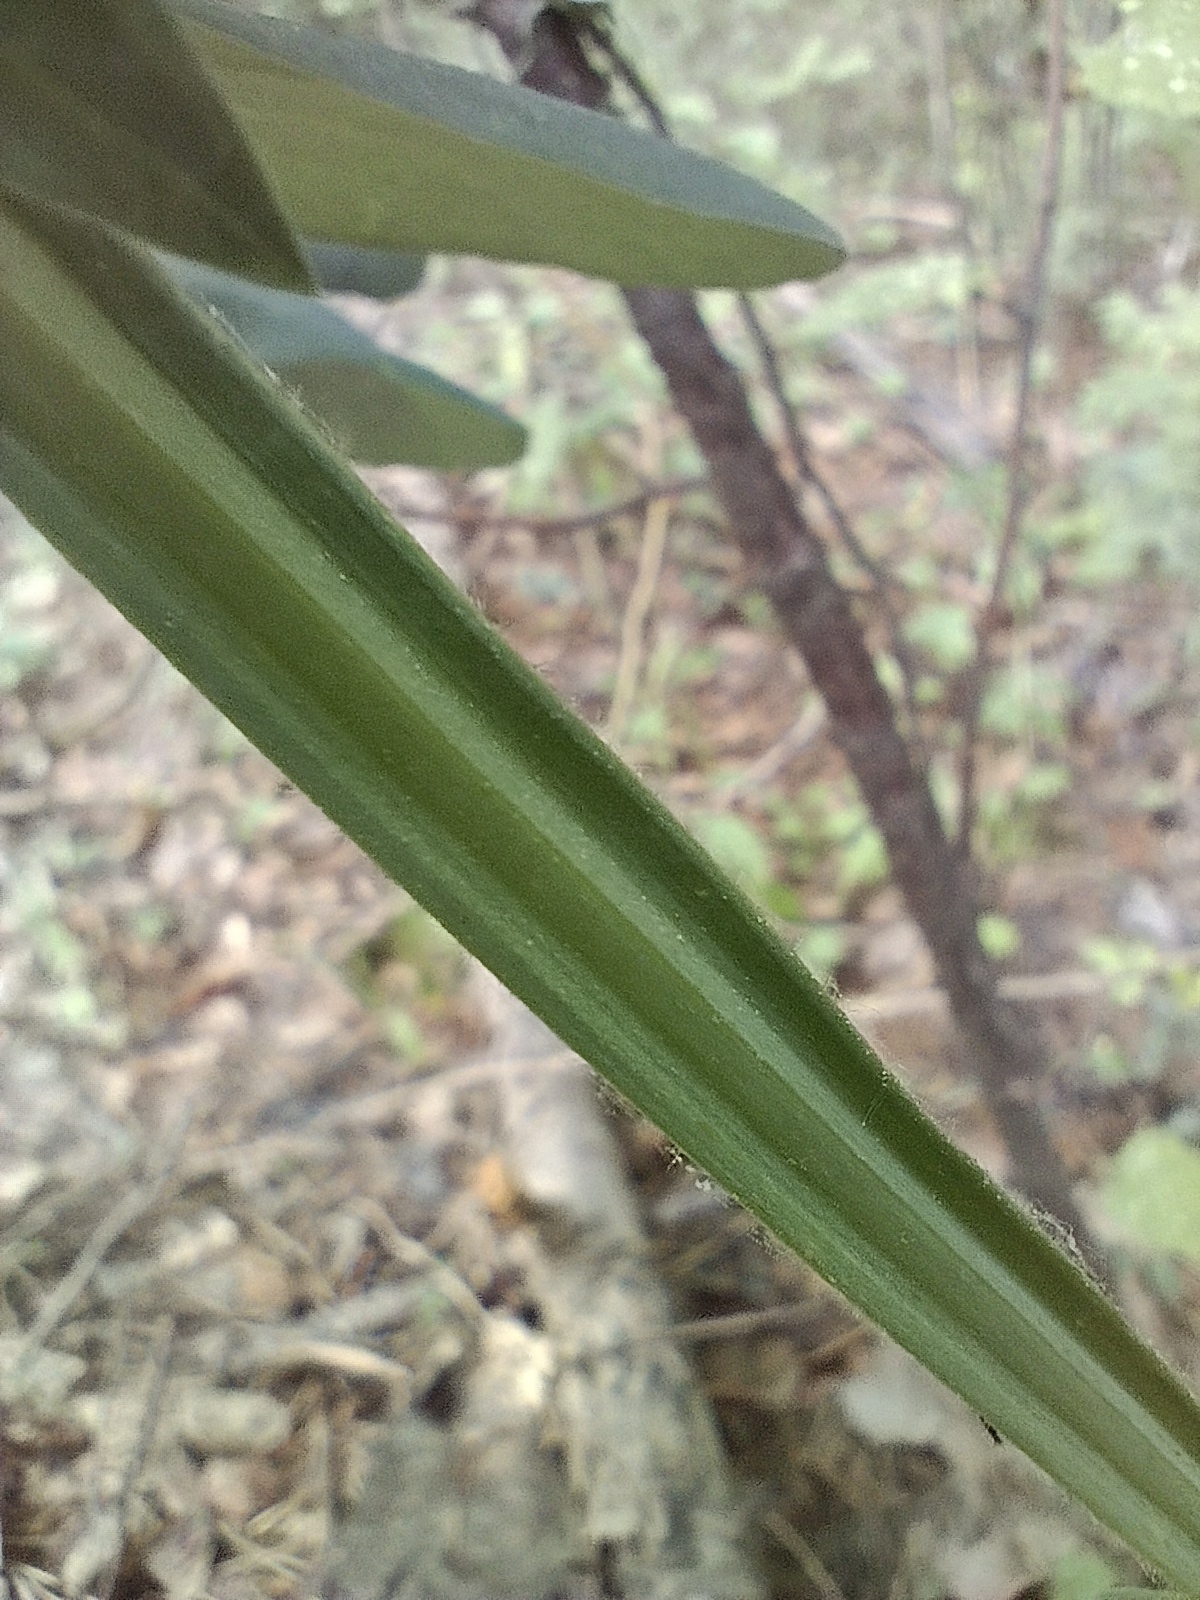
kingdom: Plantae
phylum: Tracheophyta
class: Magnoliopsida
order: Fabales
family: Fabaceae
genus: Lathyrus
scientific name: Lathyrus pisiformis
